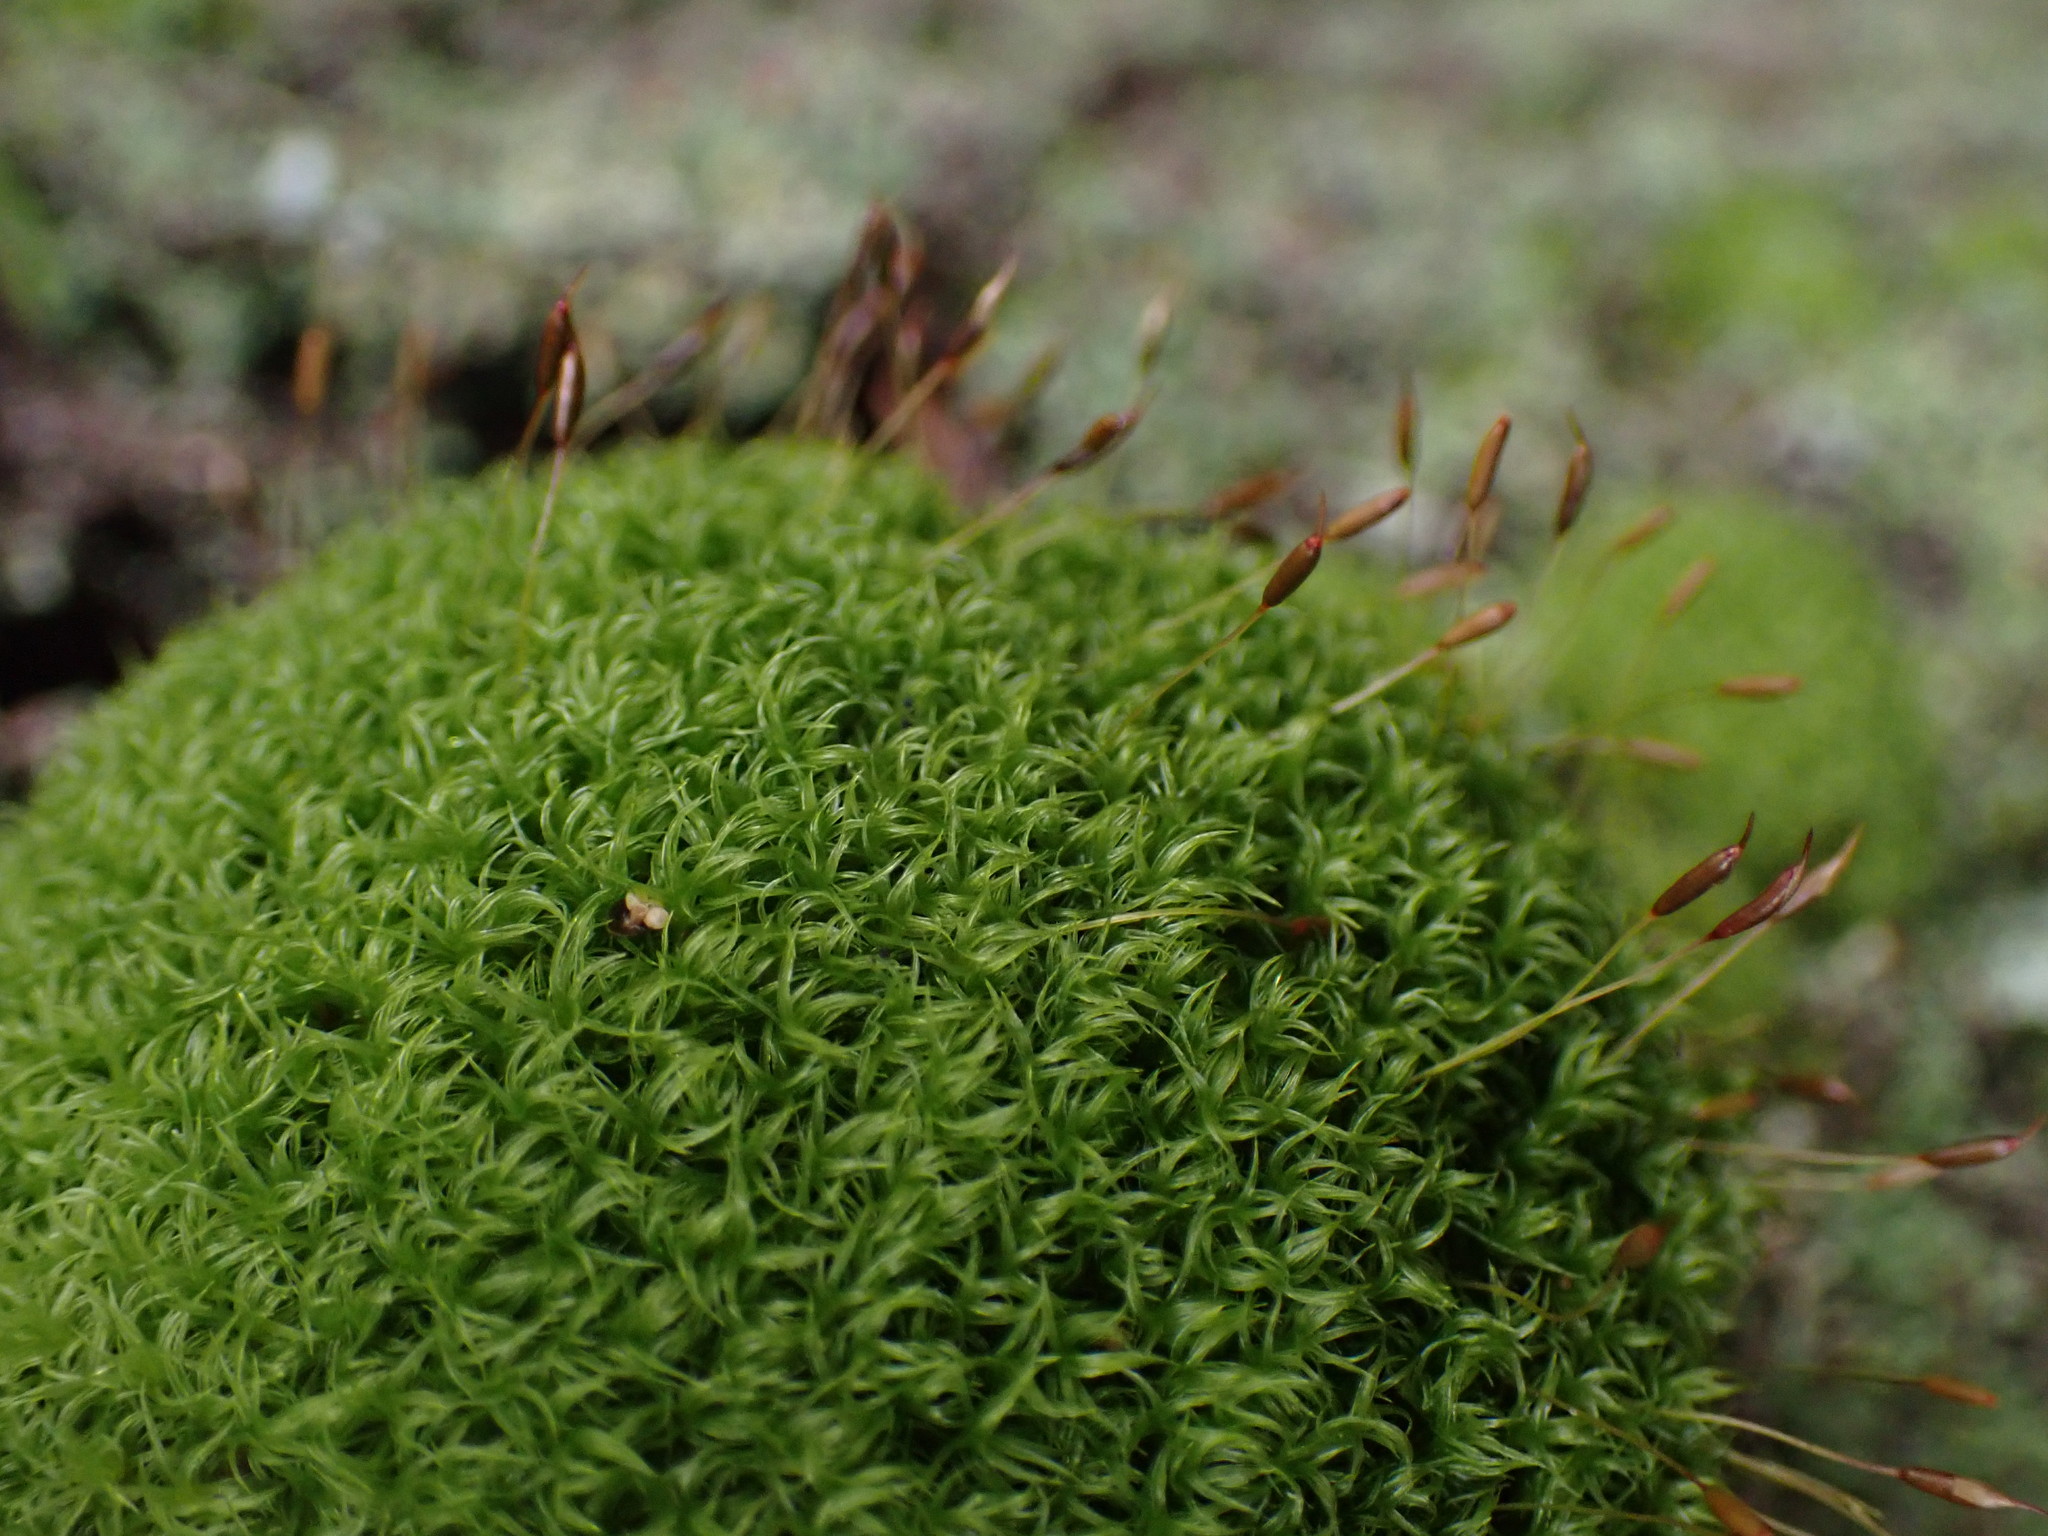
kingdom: Plantae
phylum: Bryophyta
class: Bryopsida
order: Dicranales
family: Rhabdoweisiaceae
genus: Dicranoweisia
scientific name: Dicranoweisia cirrata
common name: Common pincushion
